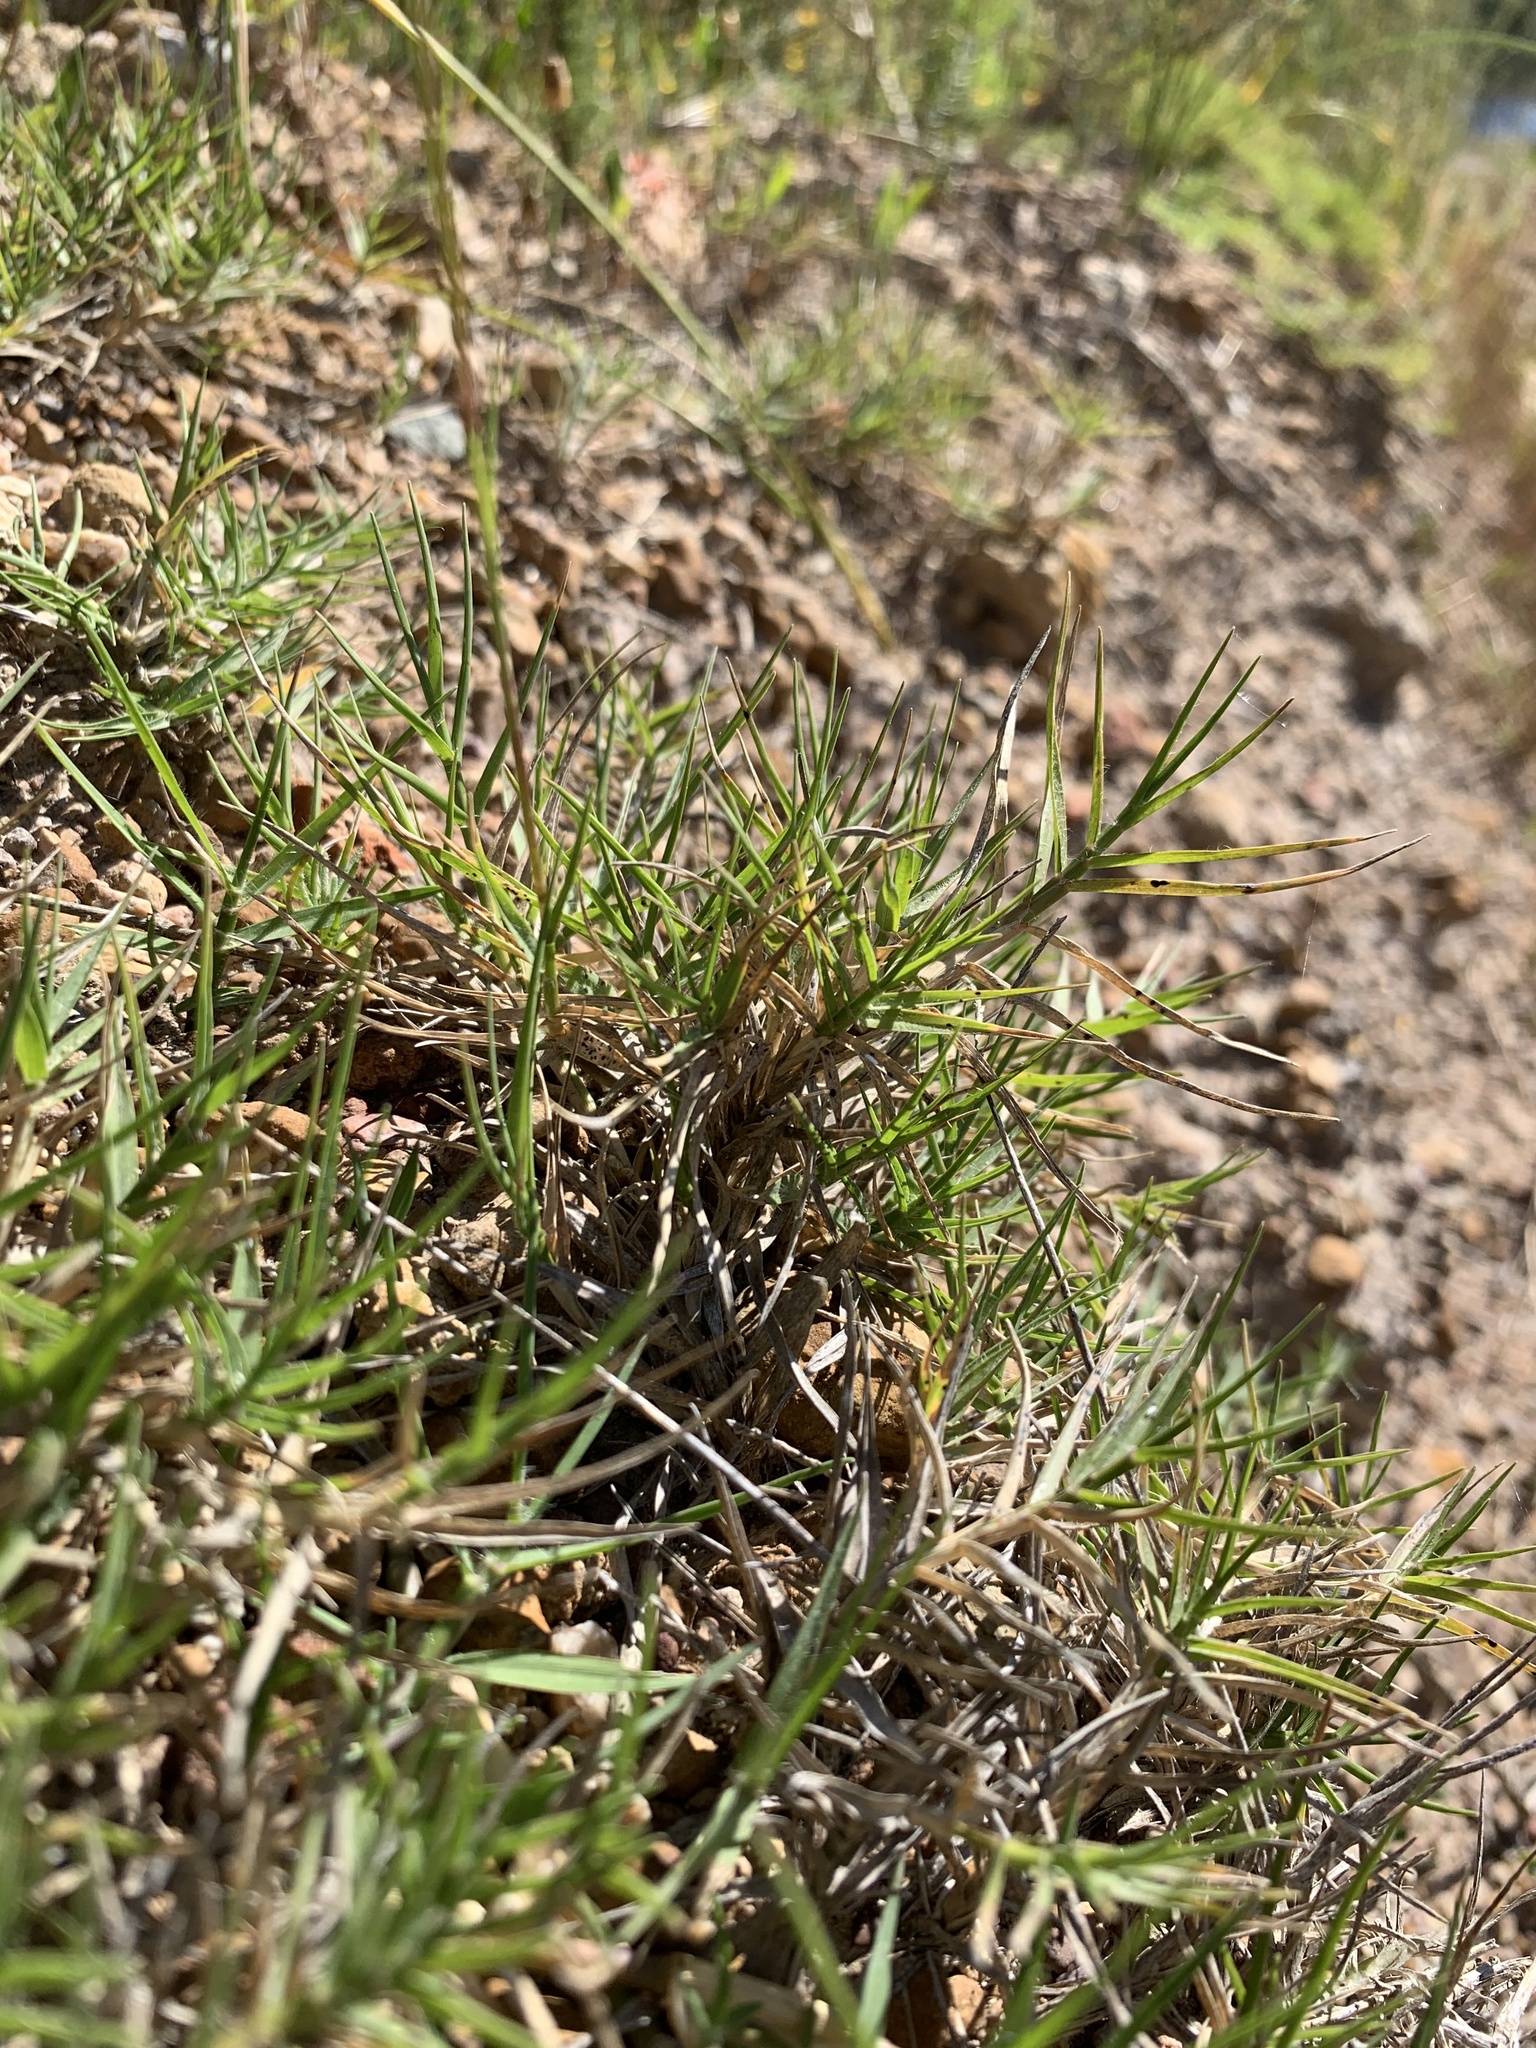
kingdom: Plantae
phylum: Tracheophyta
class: Liliopsida
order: Poales
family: Poaceae
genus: Cynodon
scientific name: Cynodon dactylon
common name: Bermuda grass
